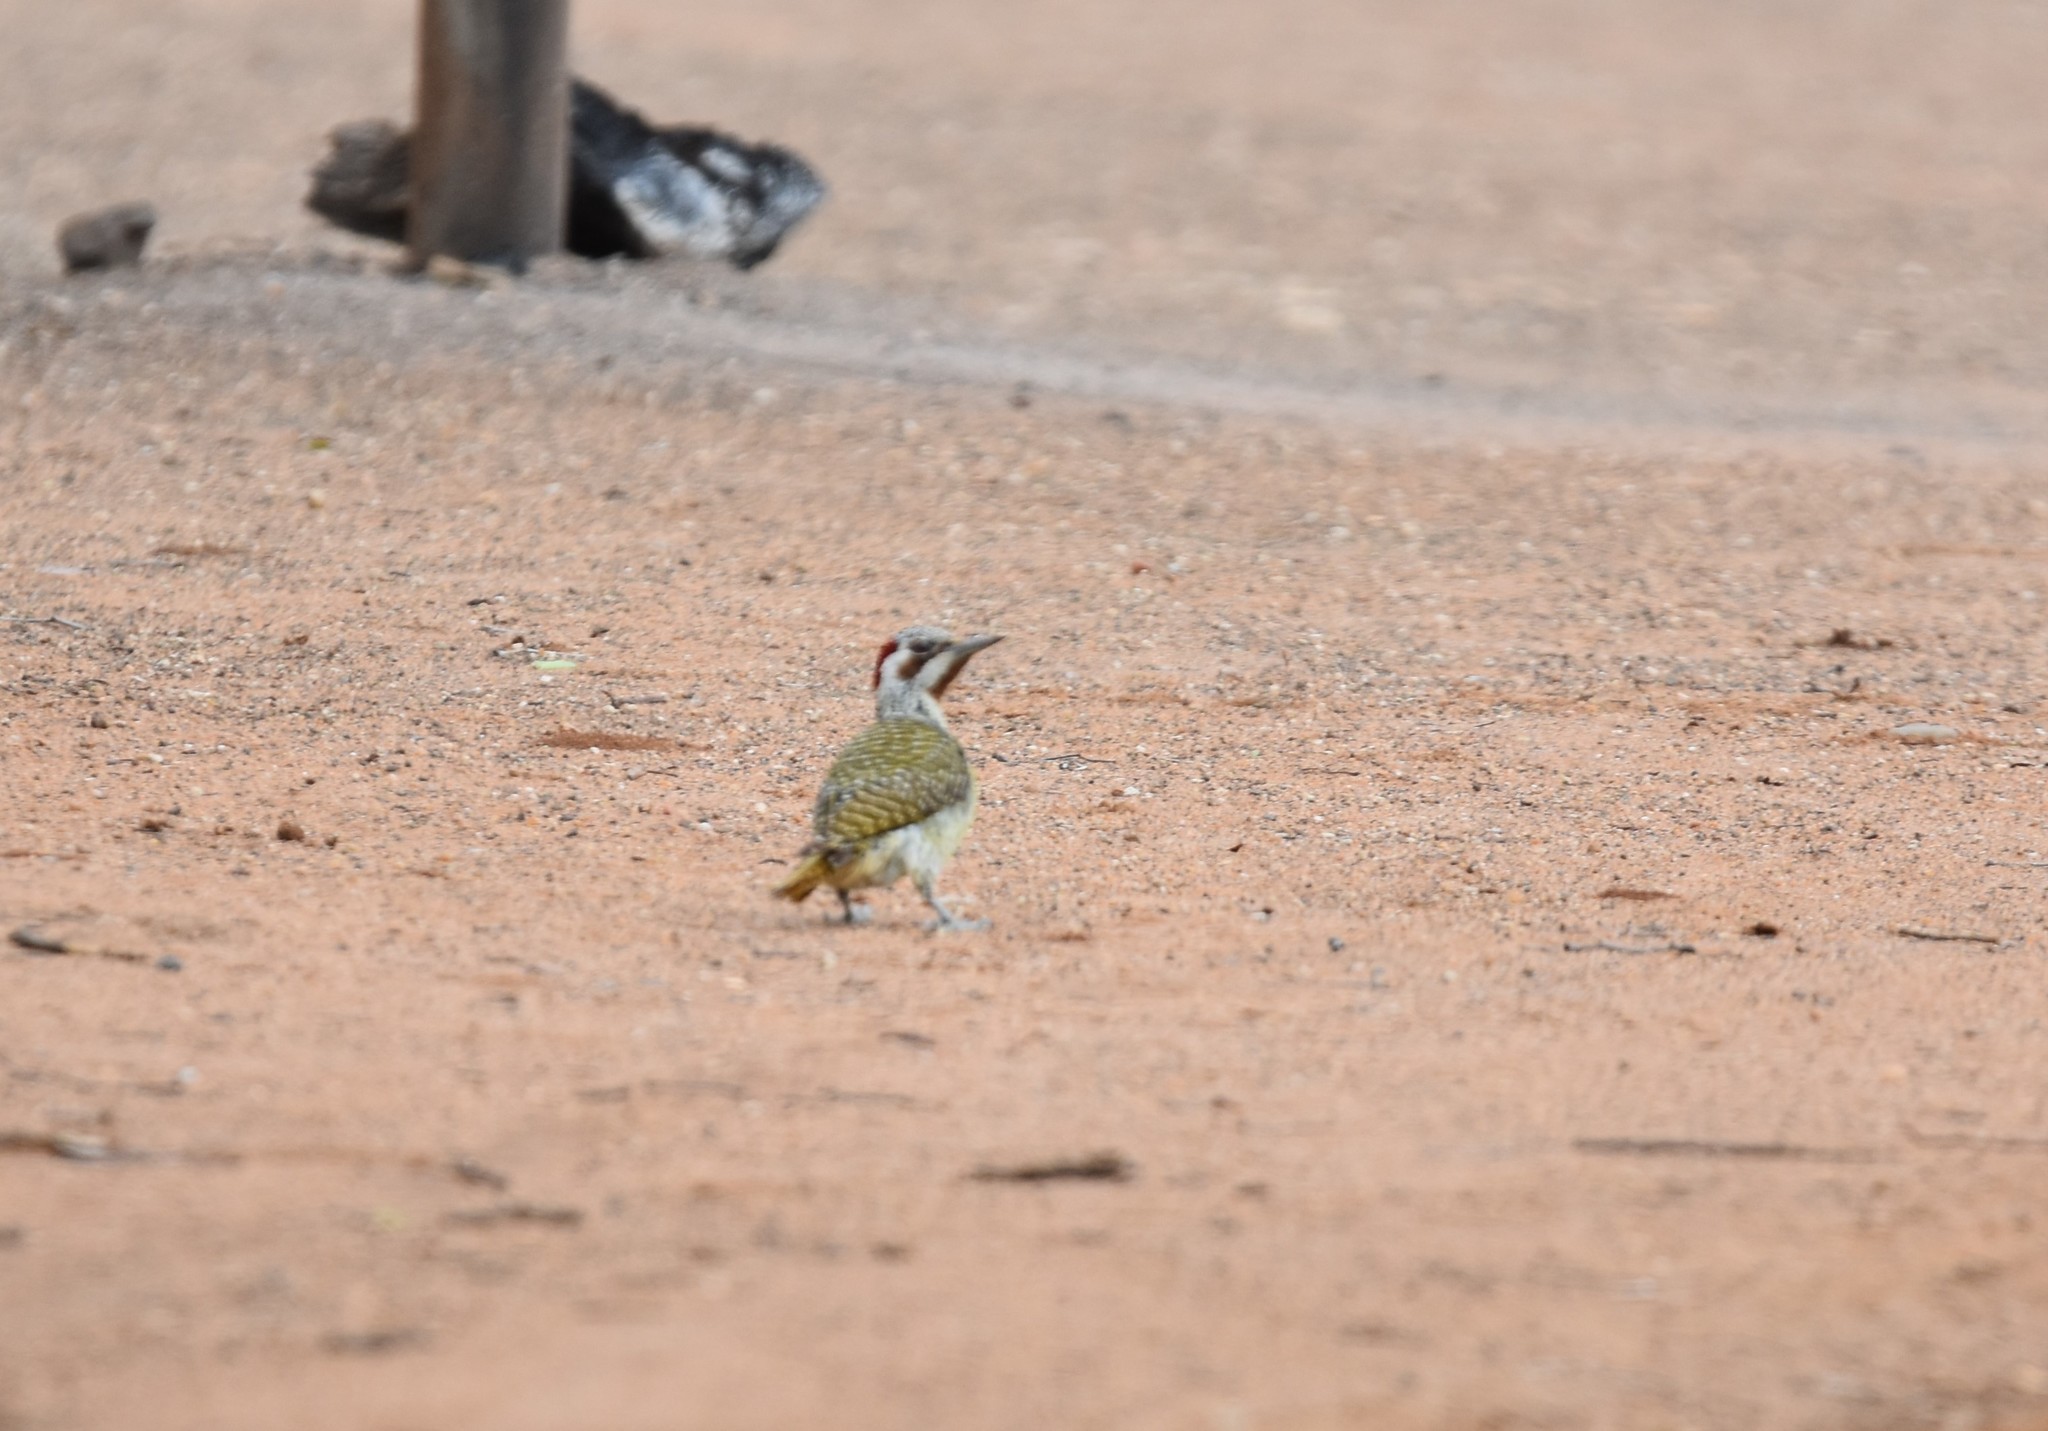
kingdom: Animalia
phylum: Chordata
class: Aves
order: Piciformes
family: Picidae
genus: Campethera
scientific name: Campethera bennettii
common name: Bennett's woodpecker
